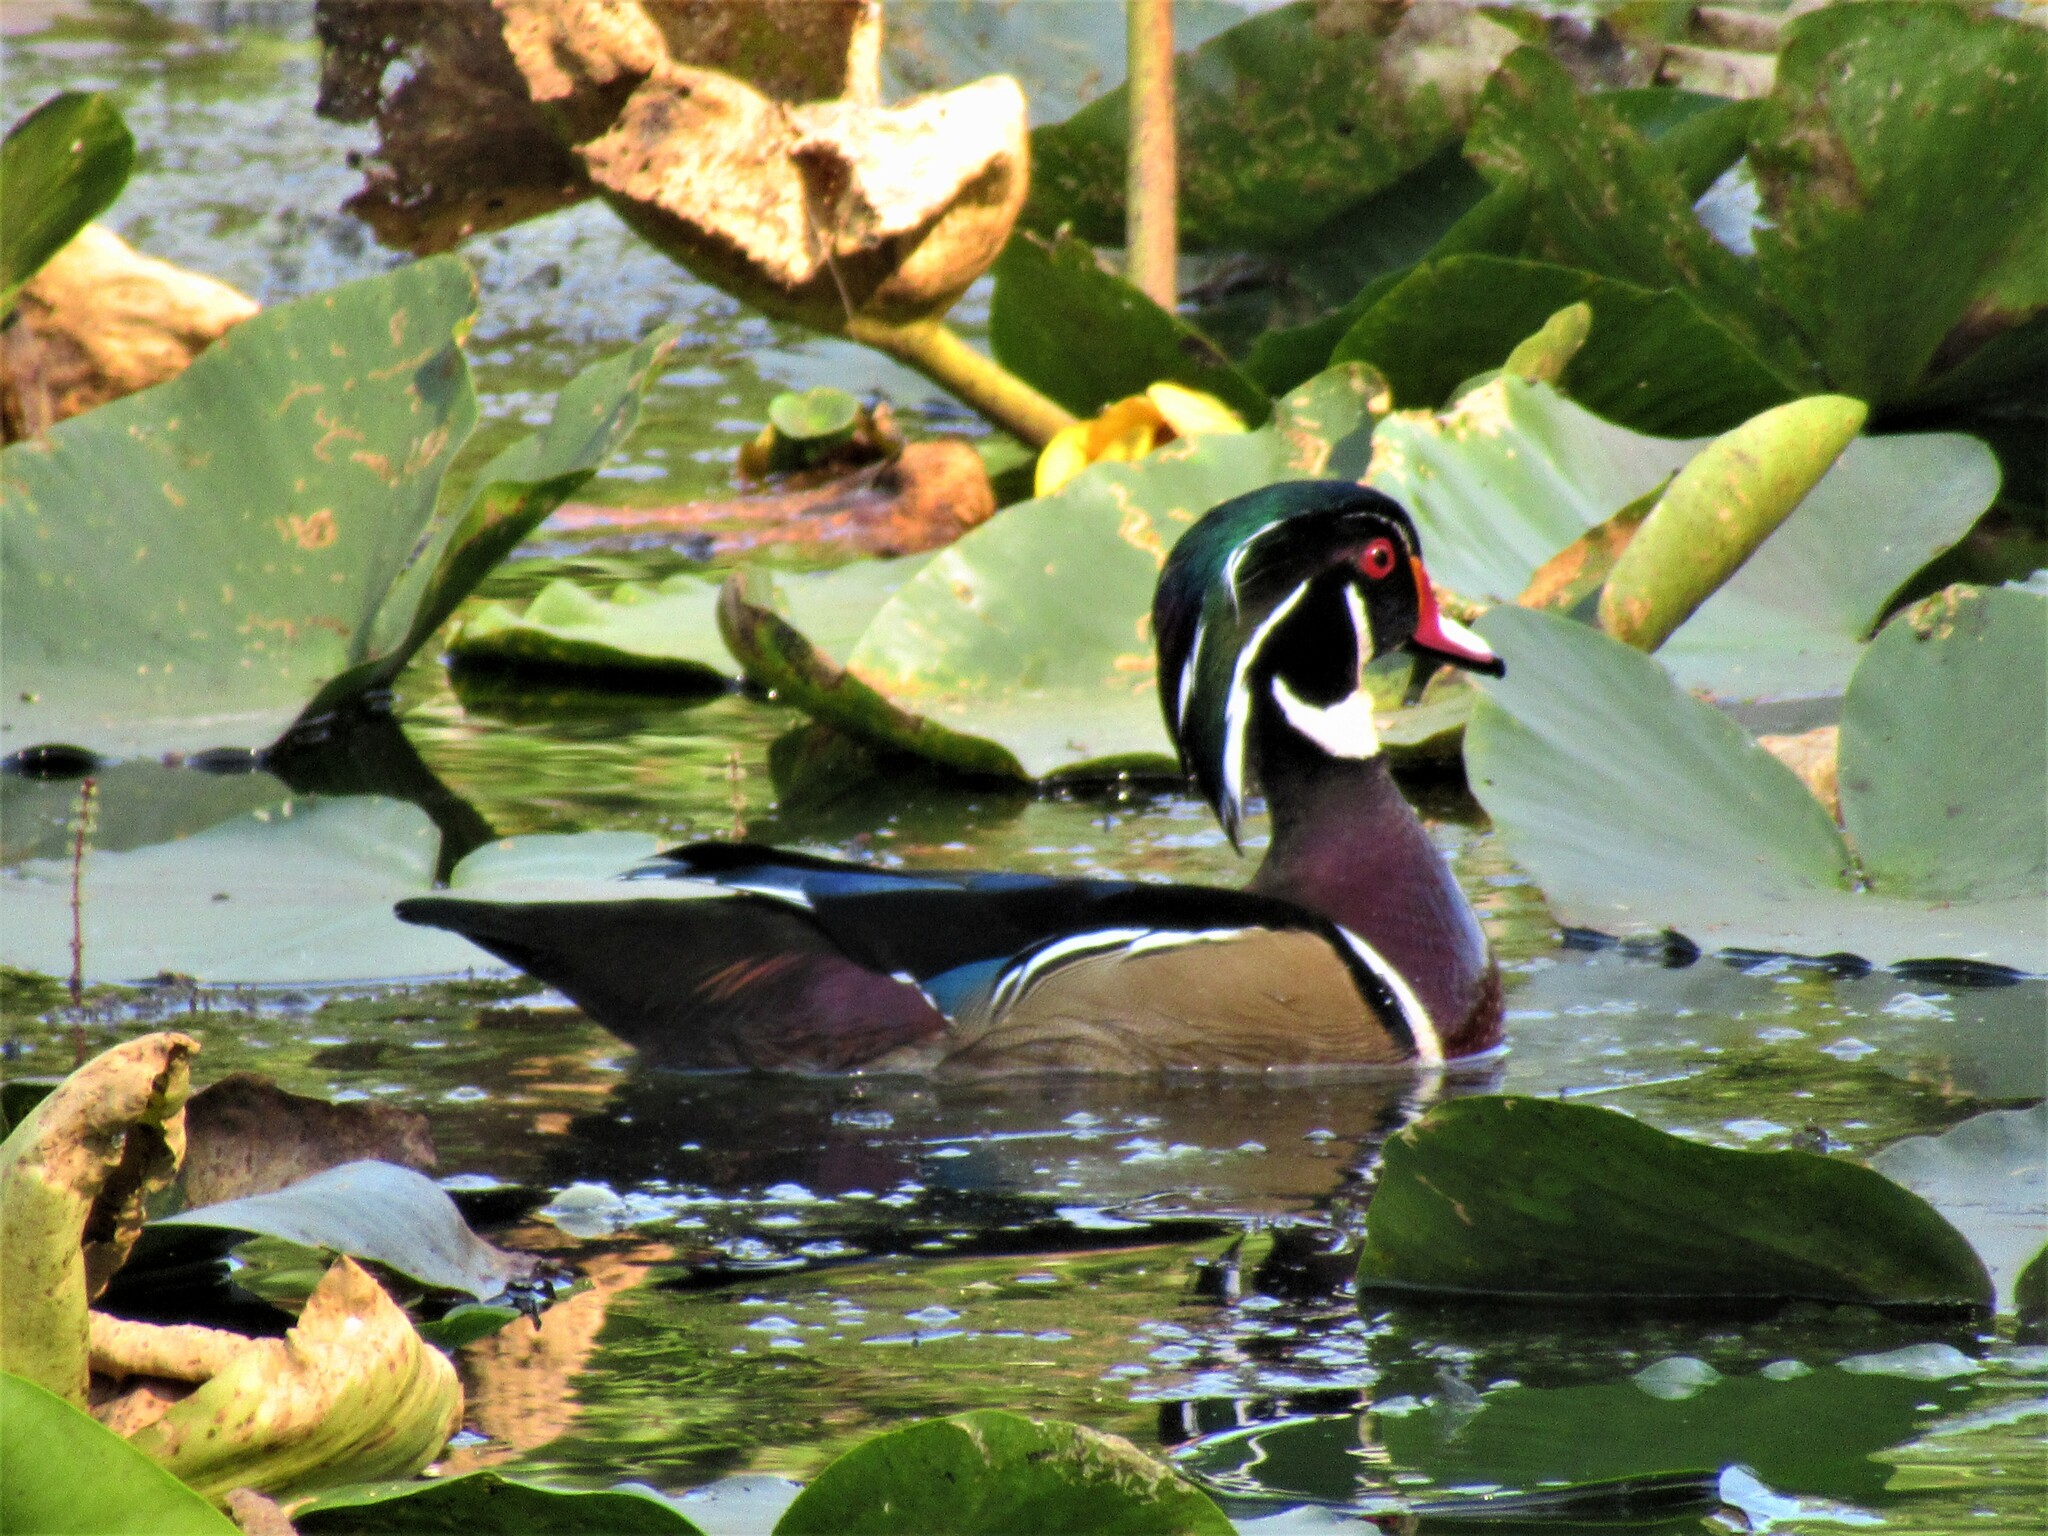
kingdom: Animalia
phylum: Chordata
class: Aves
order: Anseriformes
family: Anatidae
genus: Aix
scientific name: Aix sponsa
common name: Wood duck
